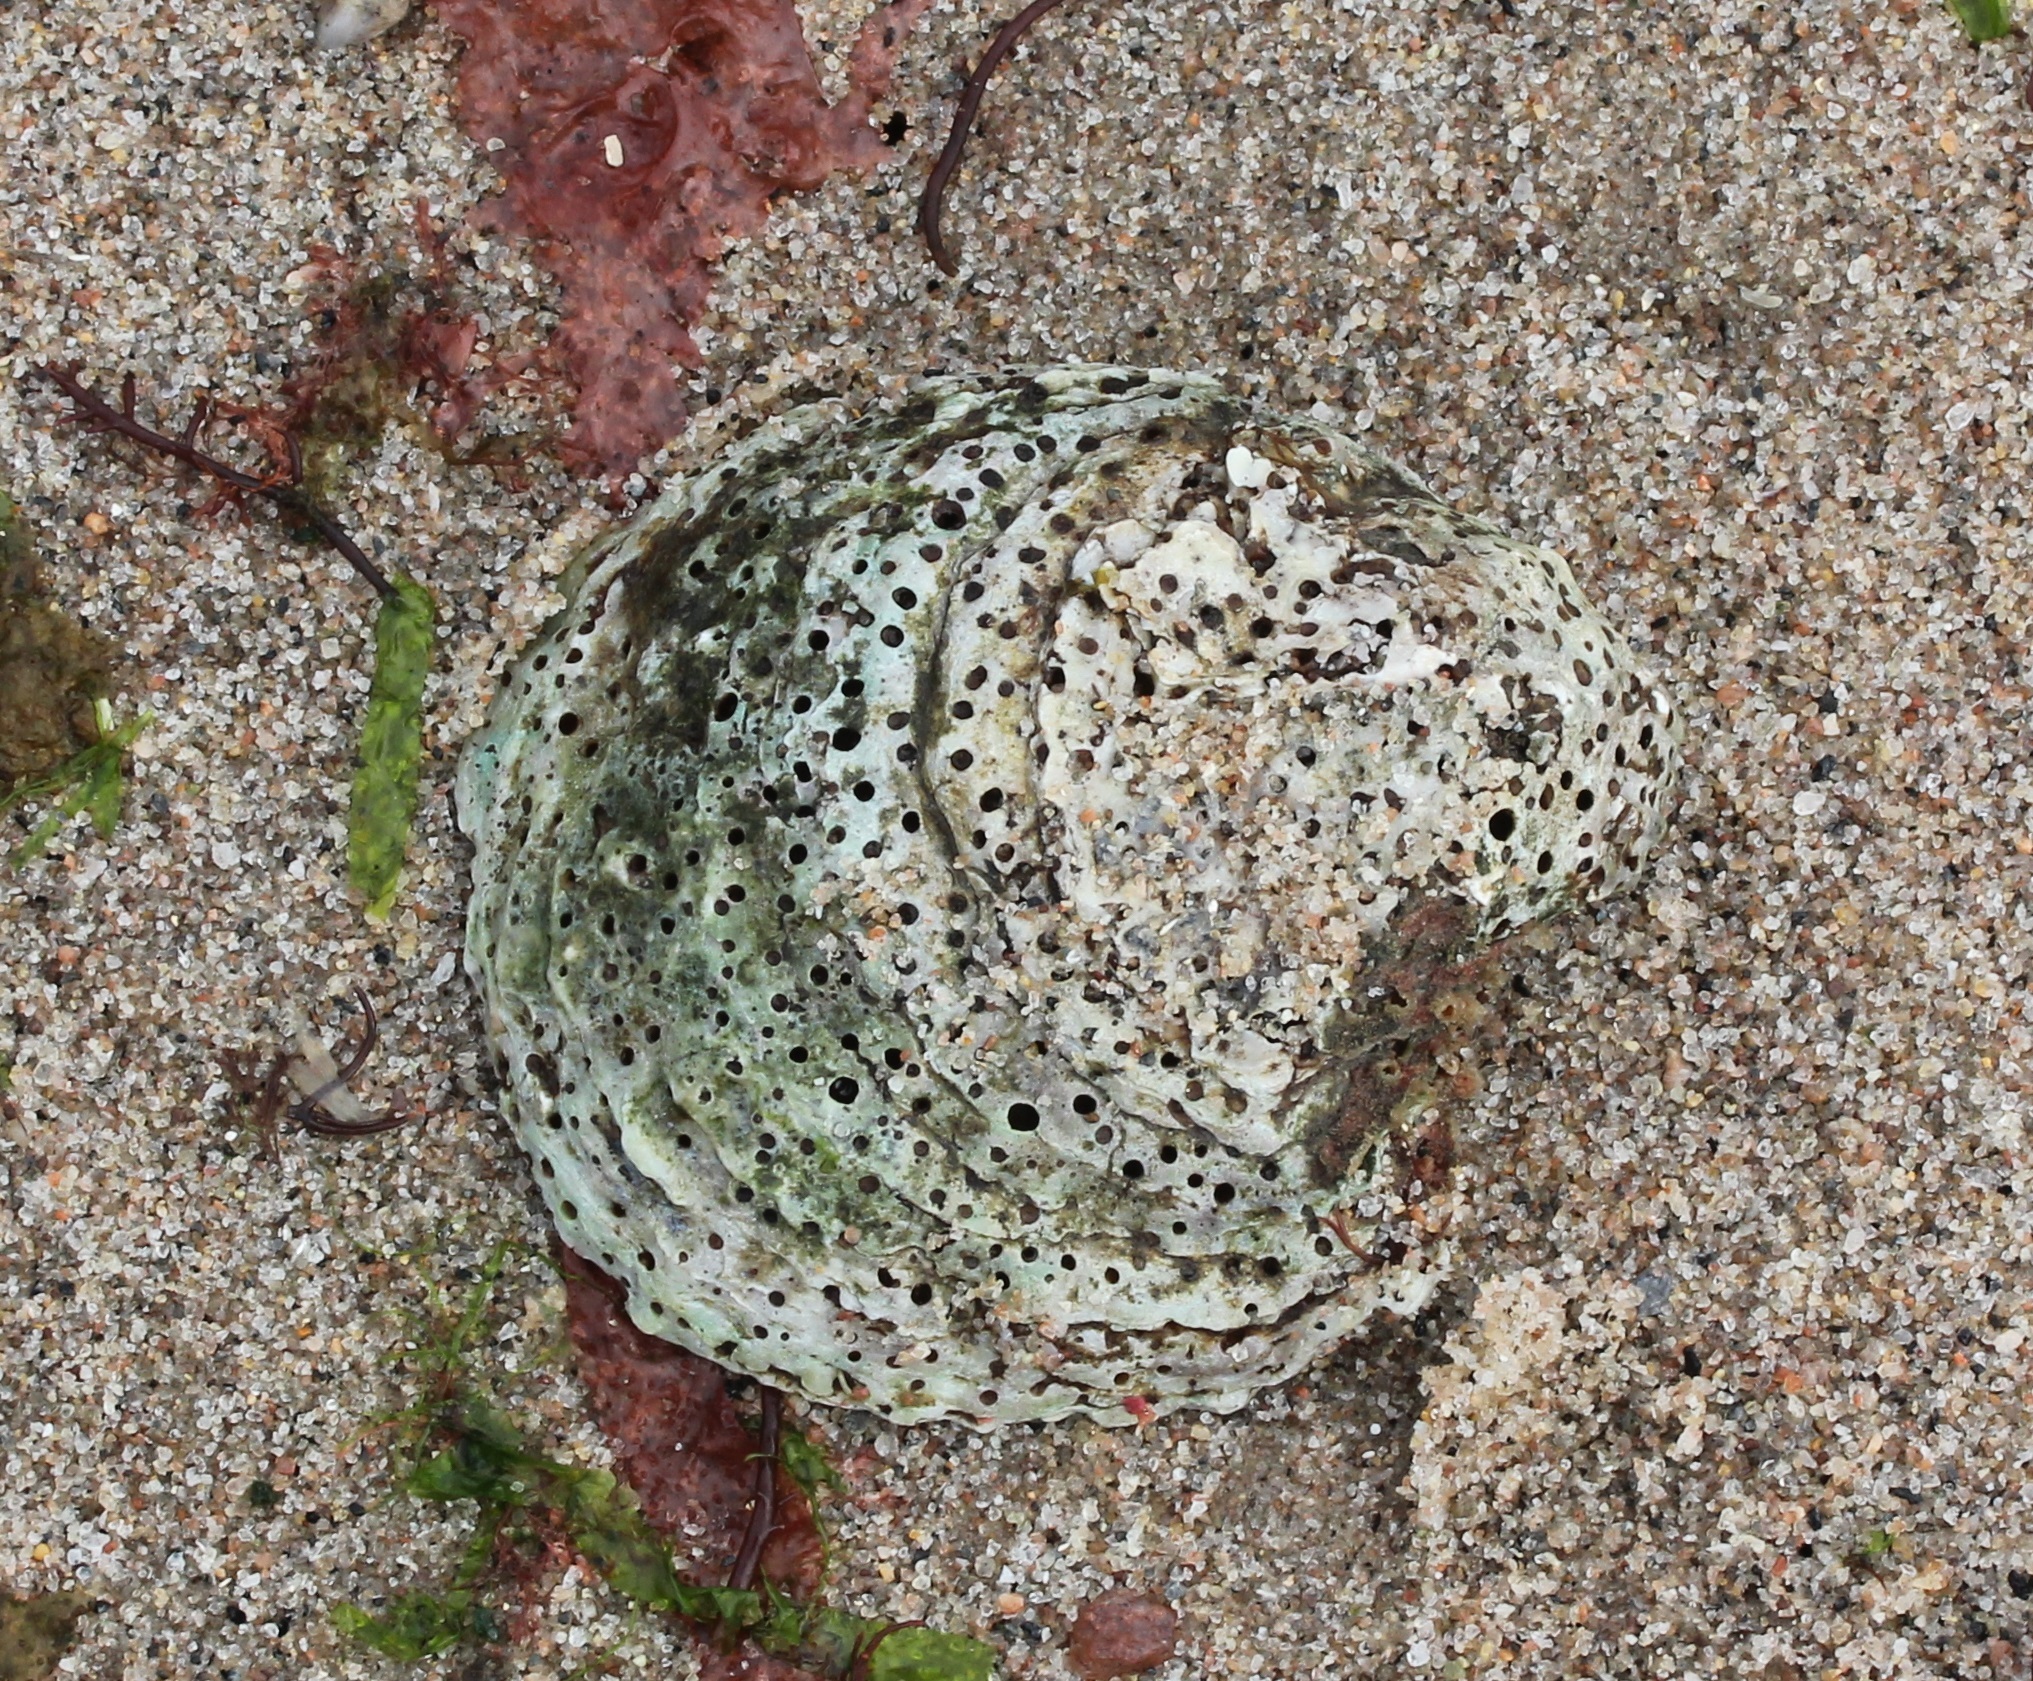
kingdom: Animalia
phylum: Mollusca
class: Bivalvia
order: Ostreida
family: Ostreidae
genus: Ostrea
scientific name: Ostrea edulis
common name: Flat oyster
